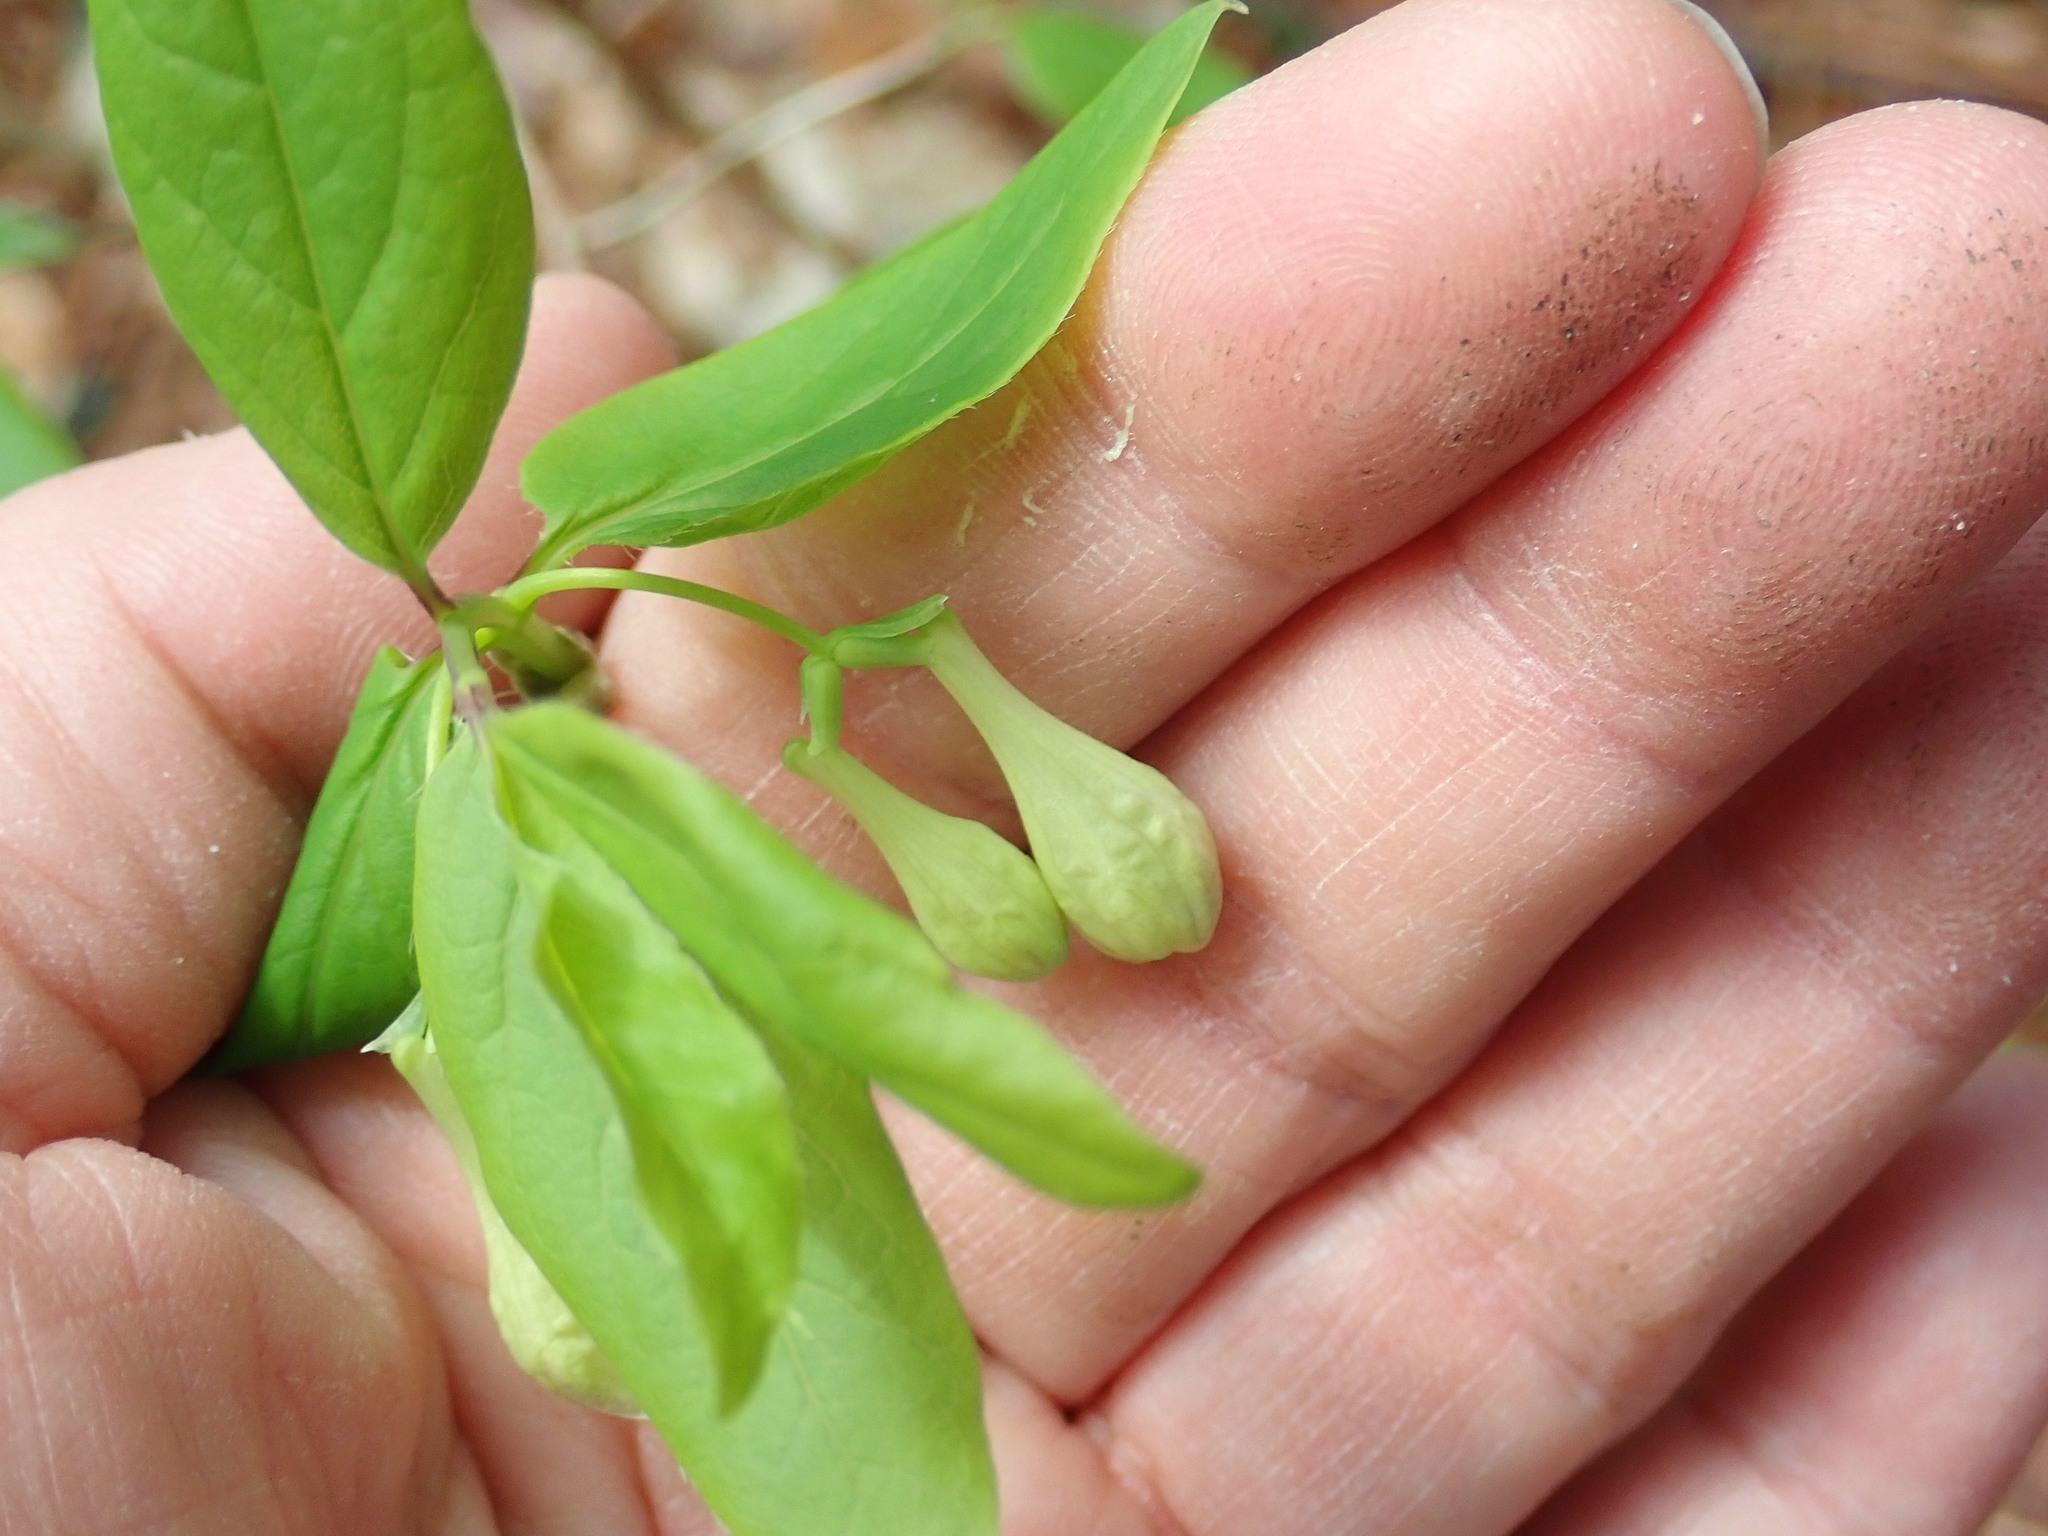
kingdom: Plantae
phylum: Tracheophyta
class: Magnoliopsida
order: Dipsacales
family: Caprifoliaceae
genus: Lonicera
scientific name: Lonicera canadensis
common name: American fly-honeysuckle
